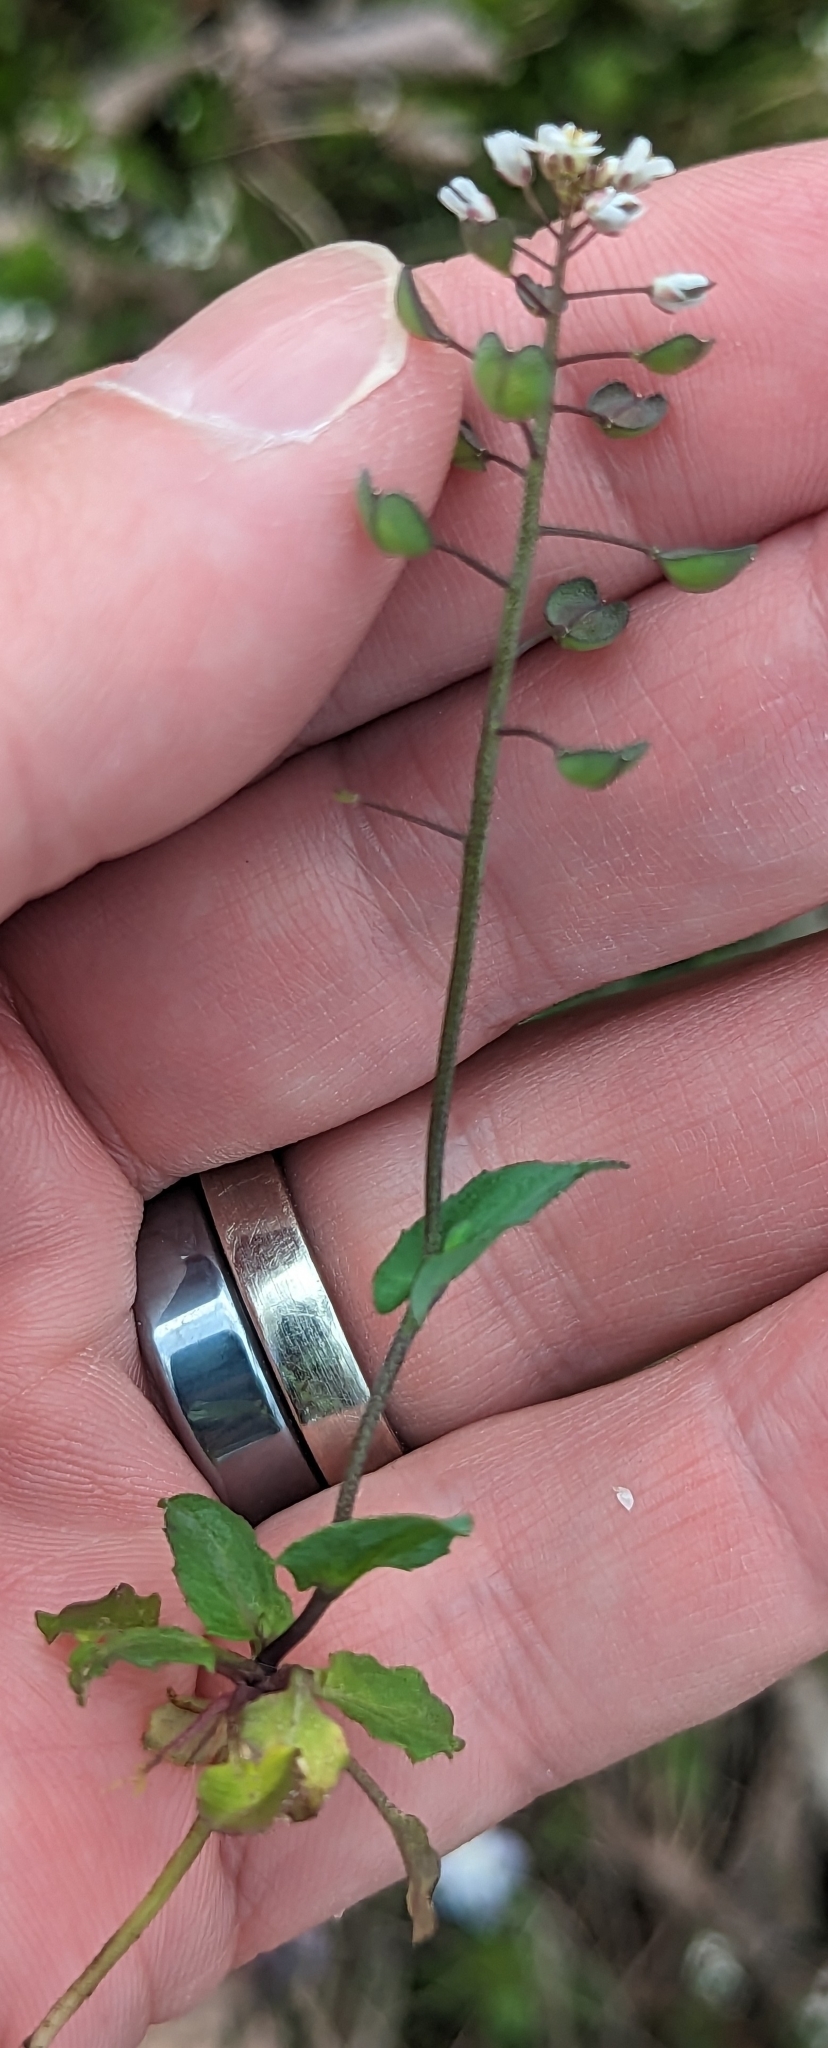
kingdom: Plantae
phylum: Tracheophyta
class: Magnoliopsida
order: Brassicales
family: Brassicaceae
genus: Noccaea
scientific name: Noccaea perfoliata
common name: Perfoliate pennycress
